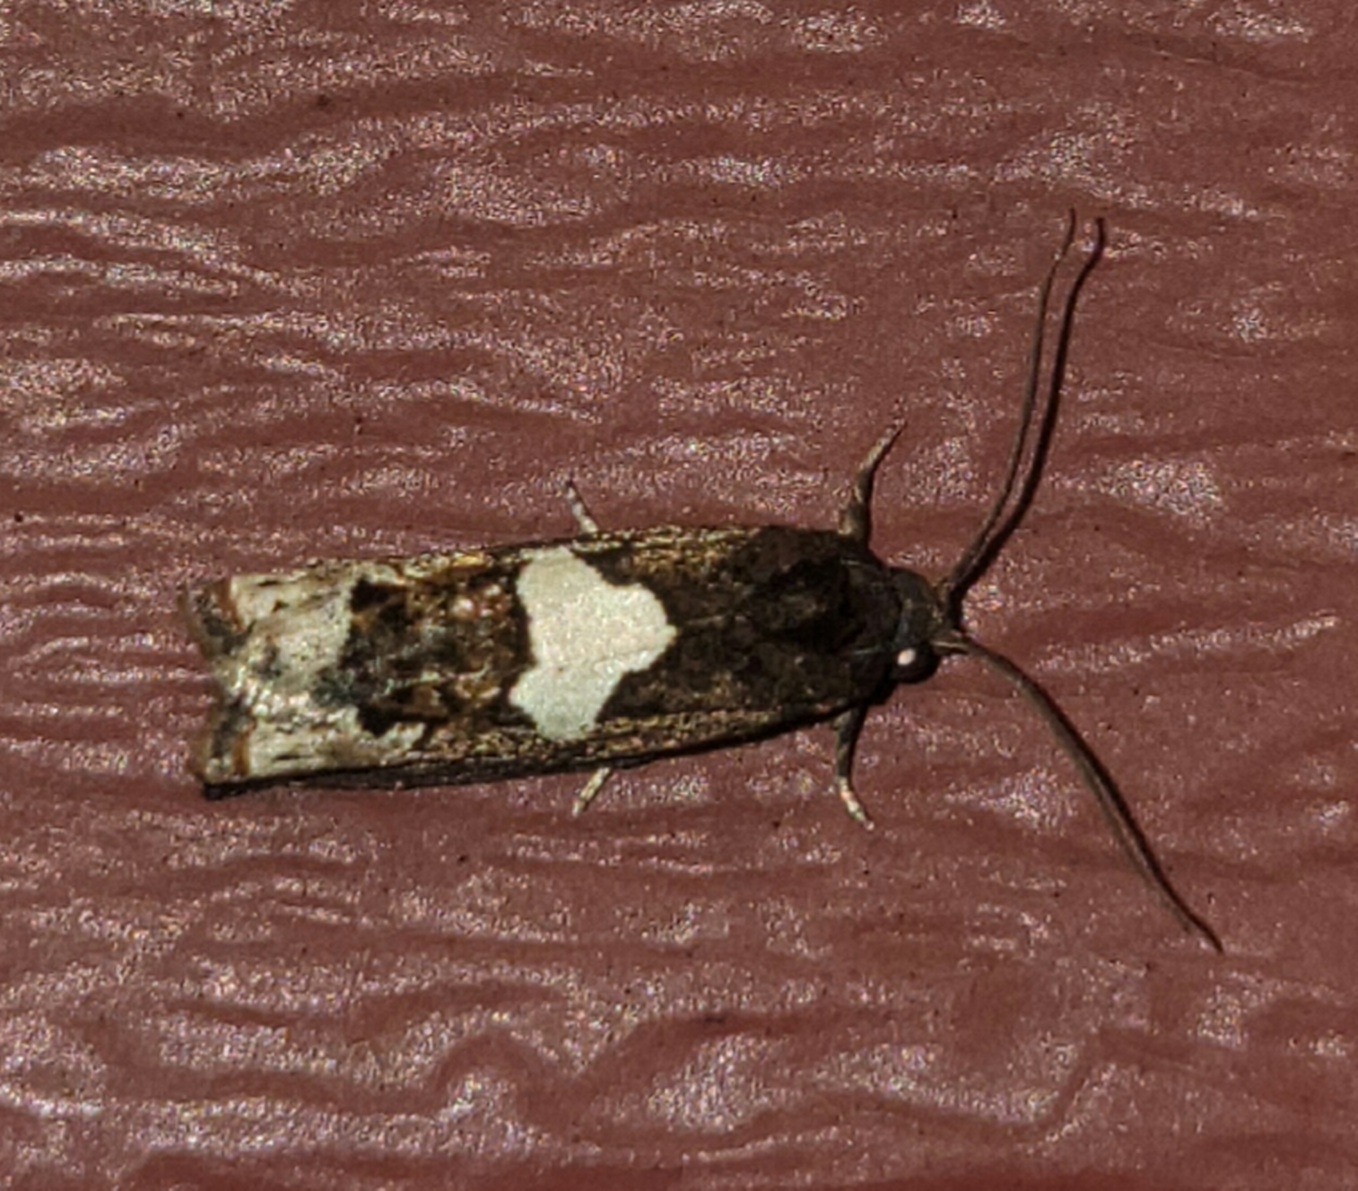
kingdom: Animalia
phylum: Arthropoda
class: Insecta
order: Lepidoptera
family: Tortricidae
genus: Epiblema
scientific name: Epiblema otiosana
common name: Bidens borer moth
